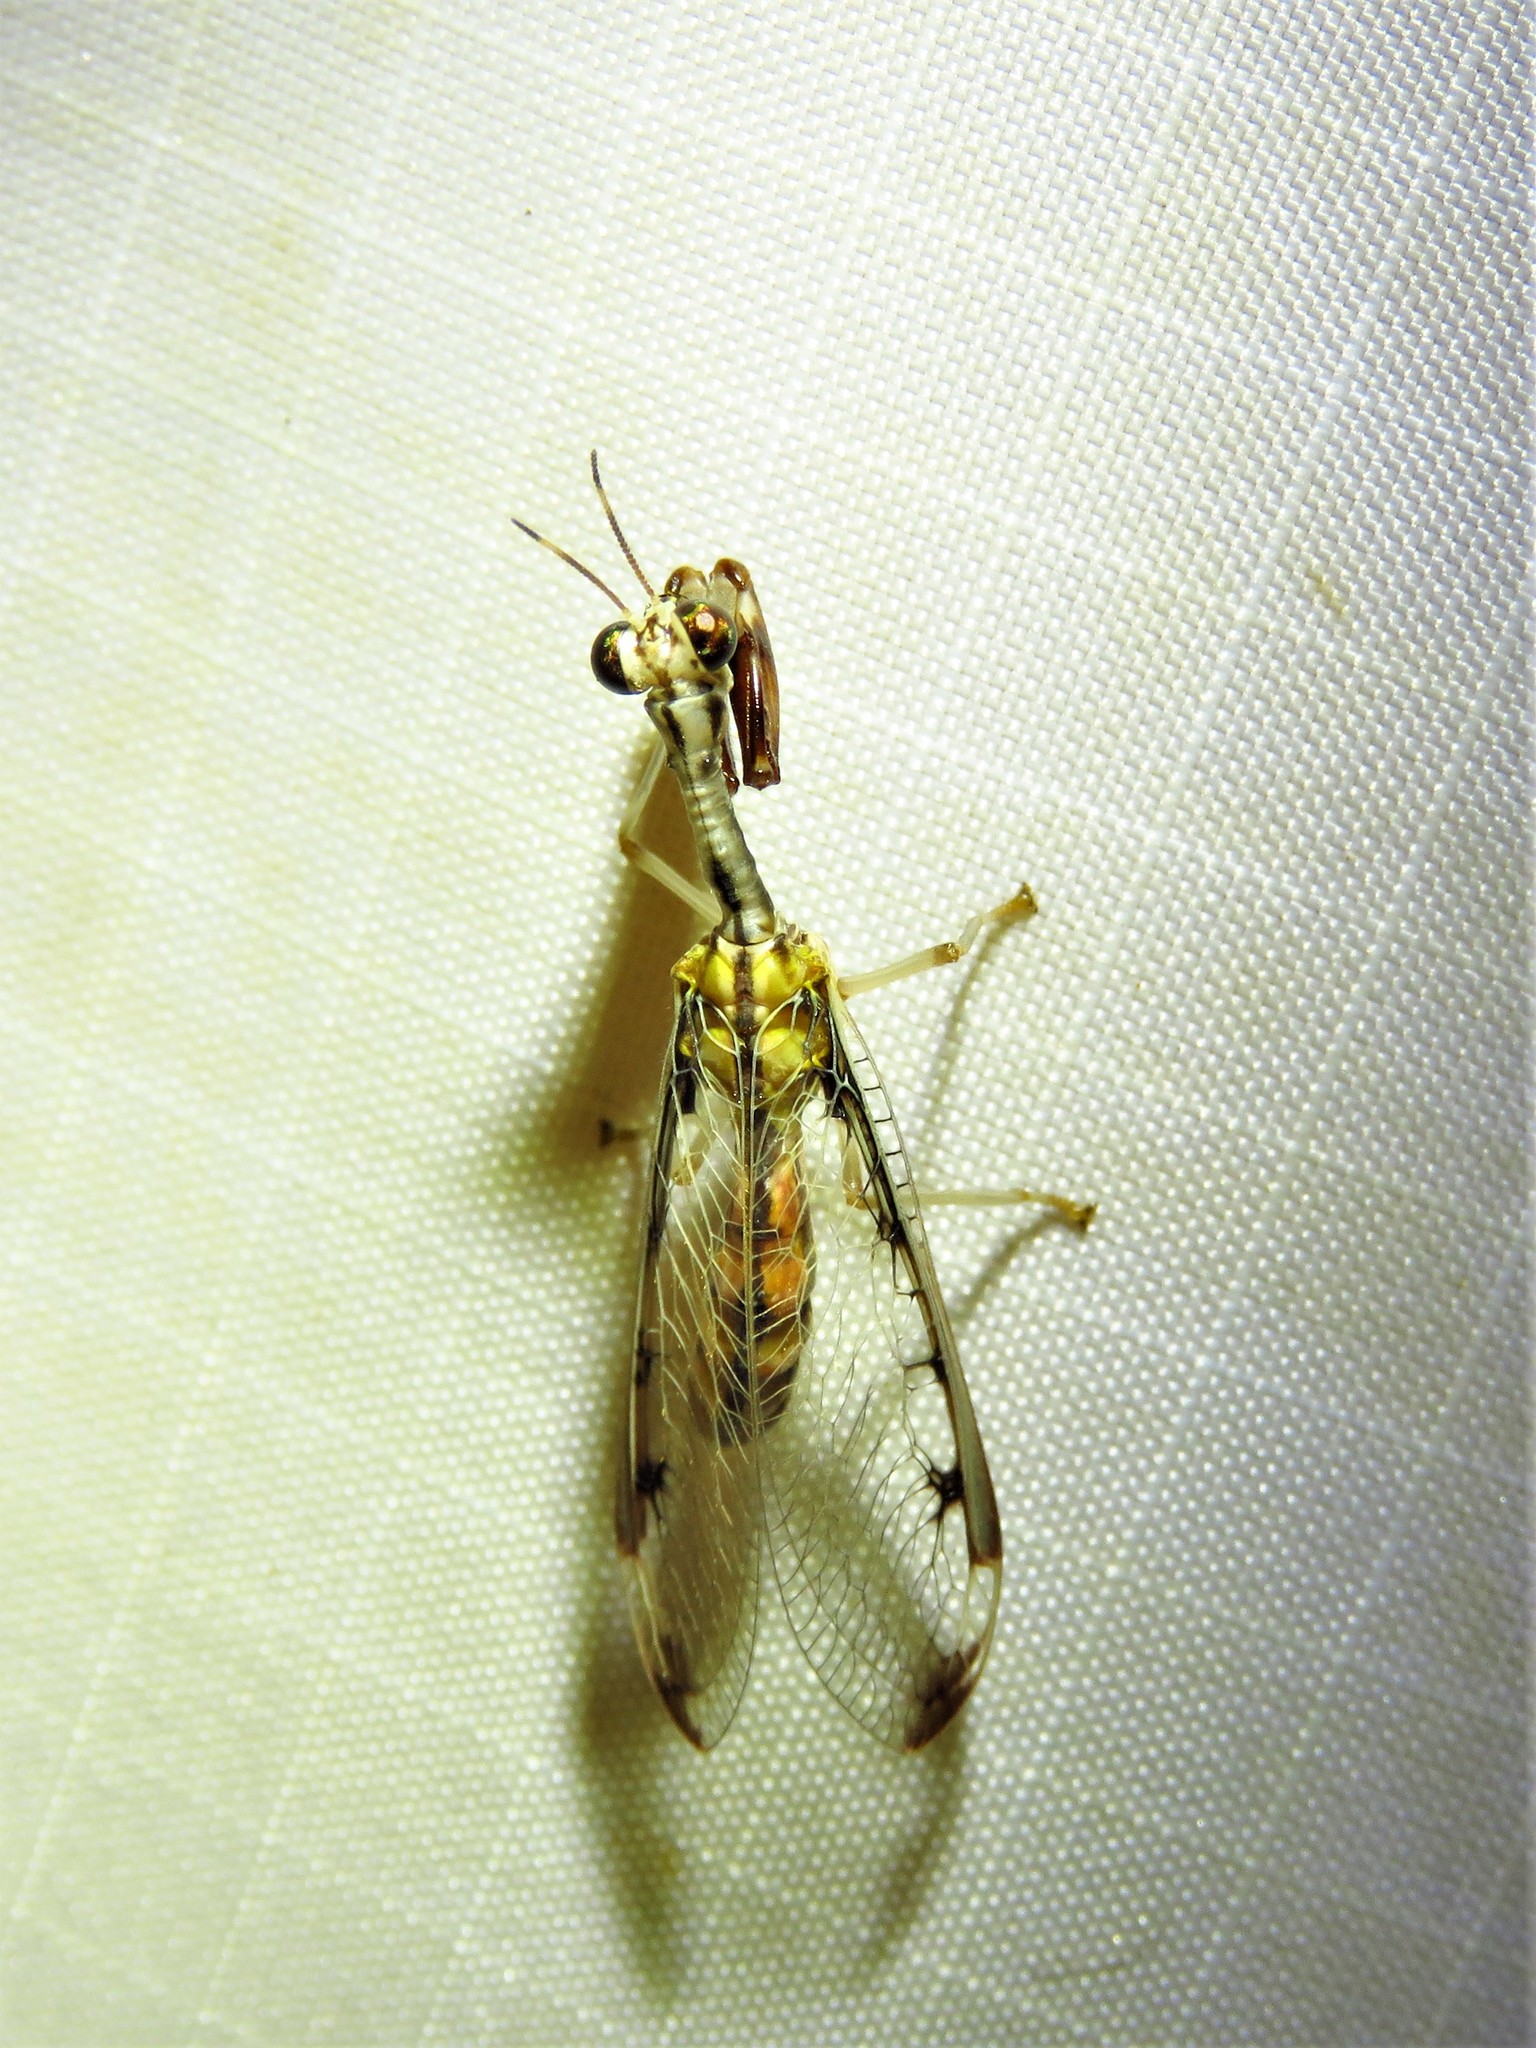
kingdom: Animalia
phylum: Arthropoda
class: Insecta
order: Neuroptera
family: Mantispidae
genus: Dicromantispa
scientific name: Dicromantispa interrupta
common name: Four-spotted mantidfly
